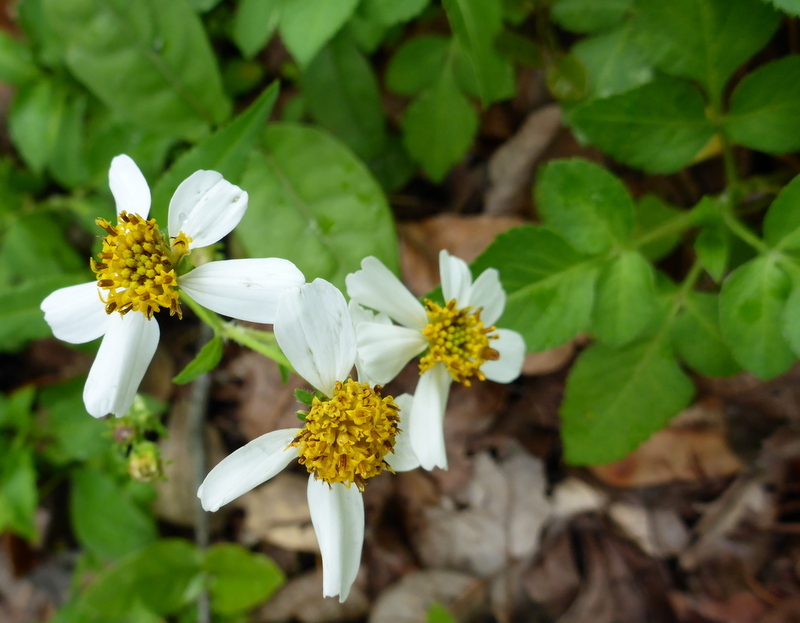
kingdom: Plantae
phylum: Tracheophyta
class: Magnoliopsida
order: Asterales
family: Asteraceae
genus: Bidens
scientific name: Bidens alba
